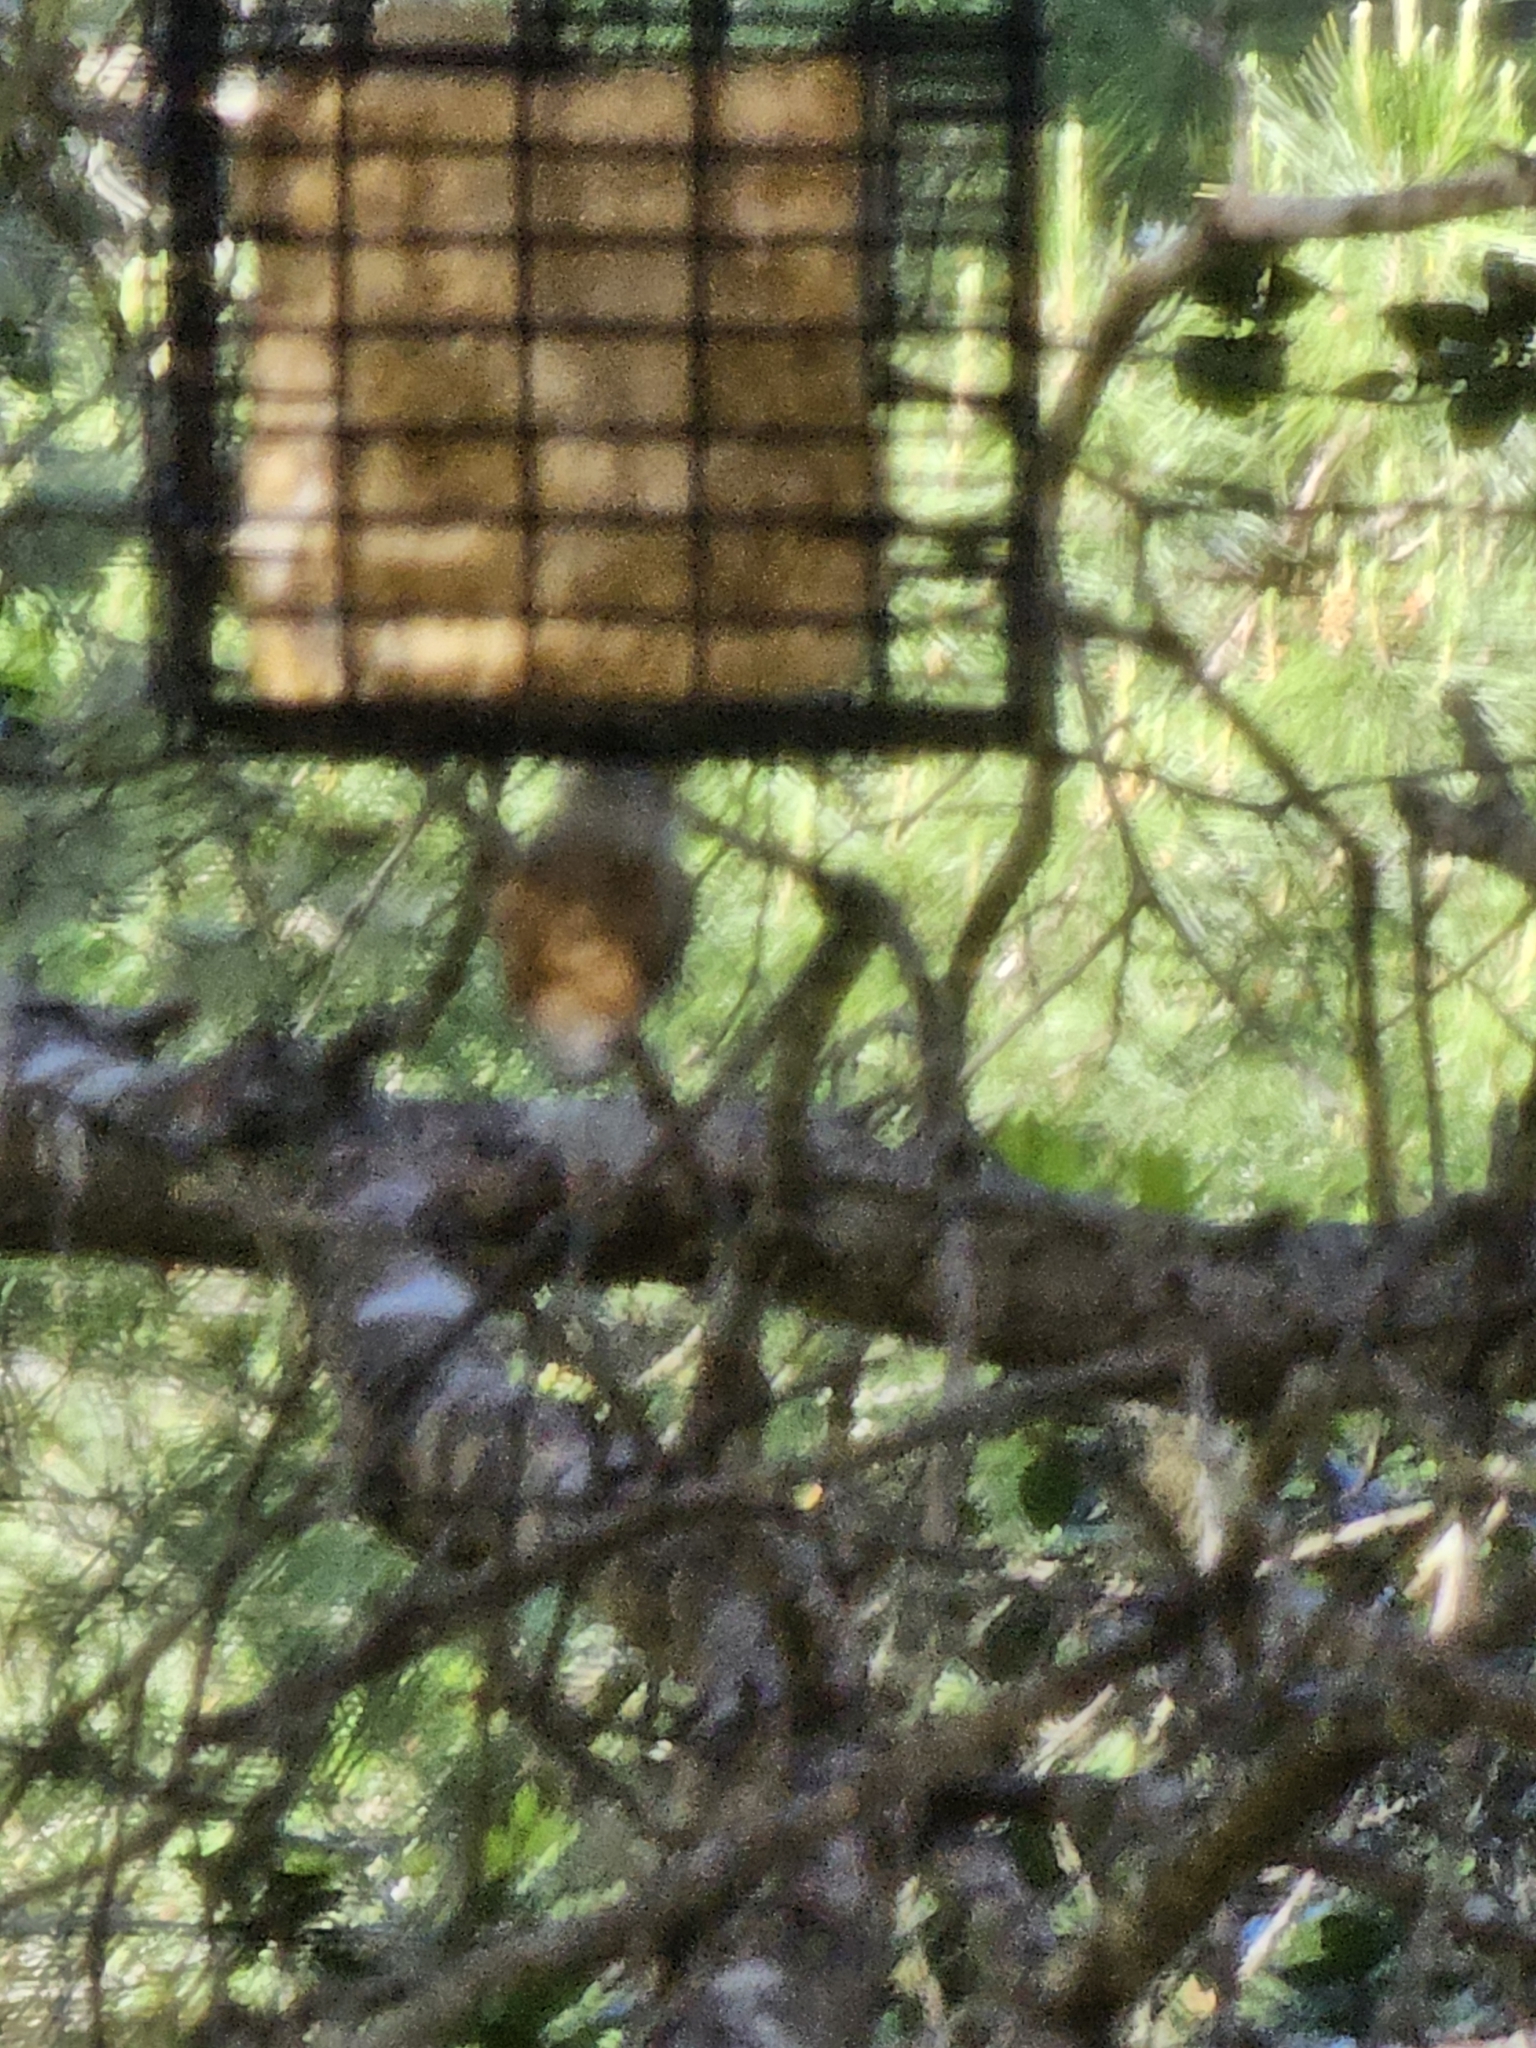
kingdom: Animalia
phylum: Chordata
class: Aves
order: Passeriformes
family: Sittidae
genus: Sitta
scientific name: Sitta canadensis
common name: Red-breasted nuthatch
